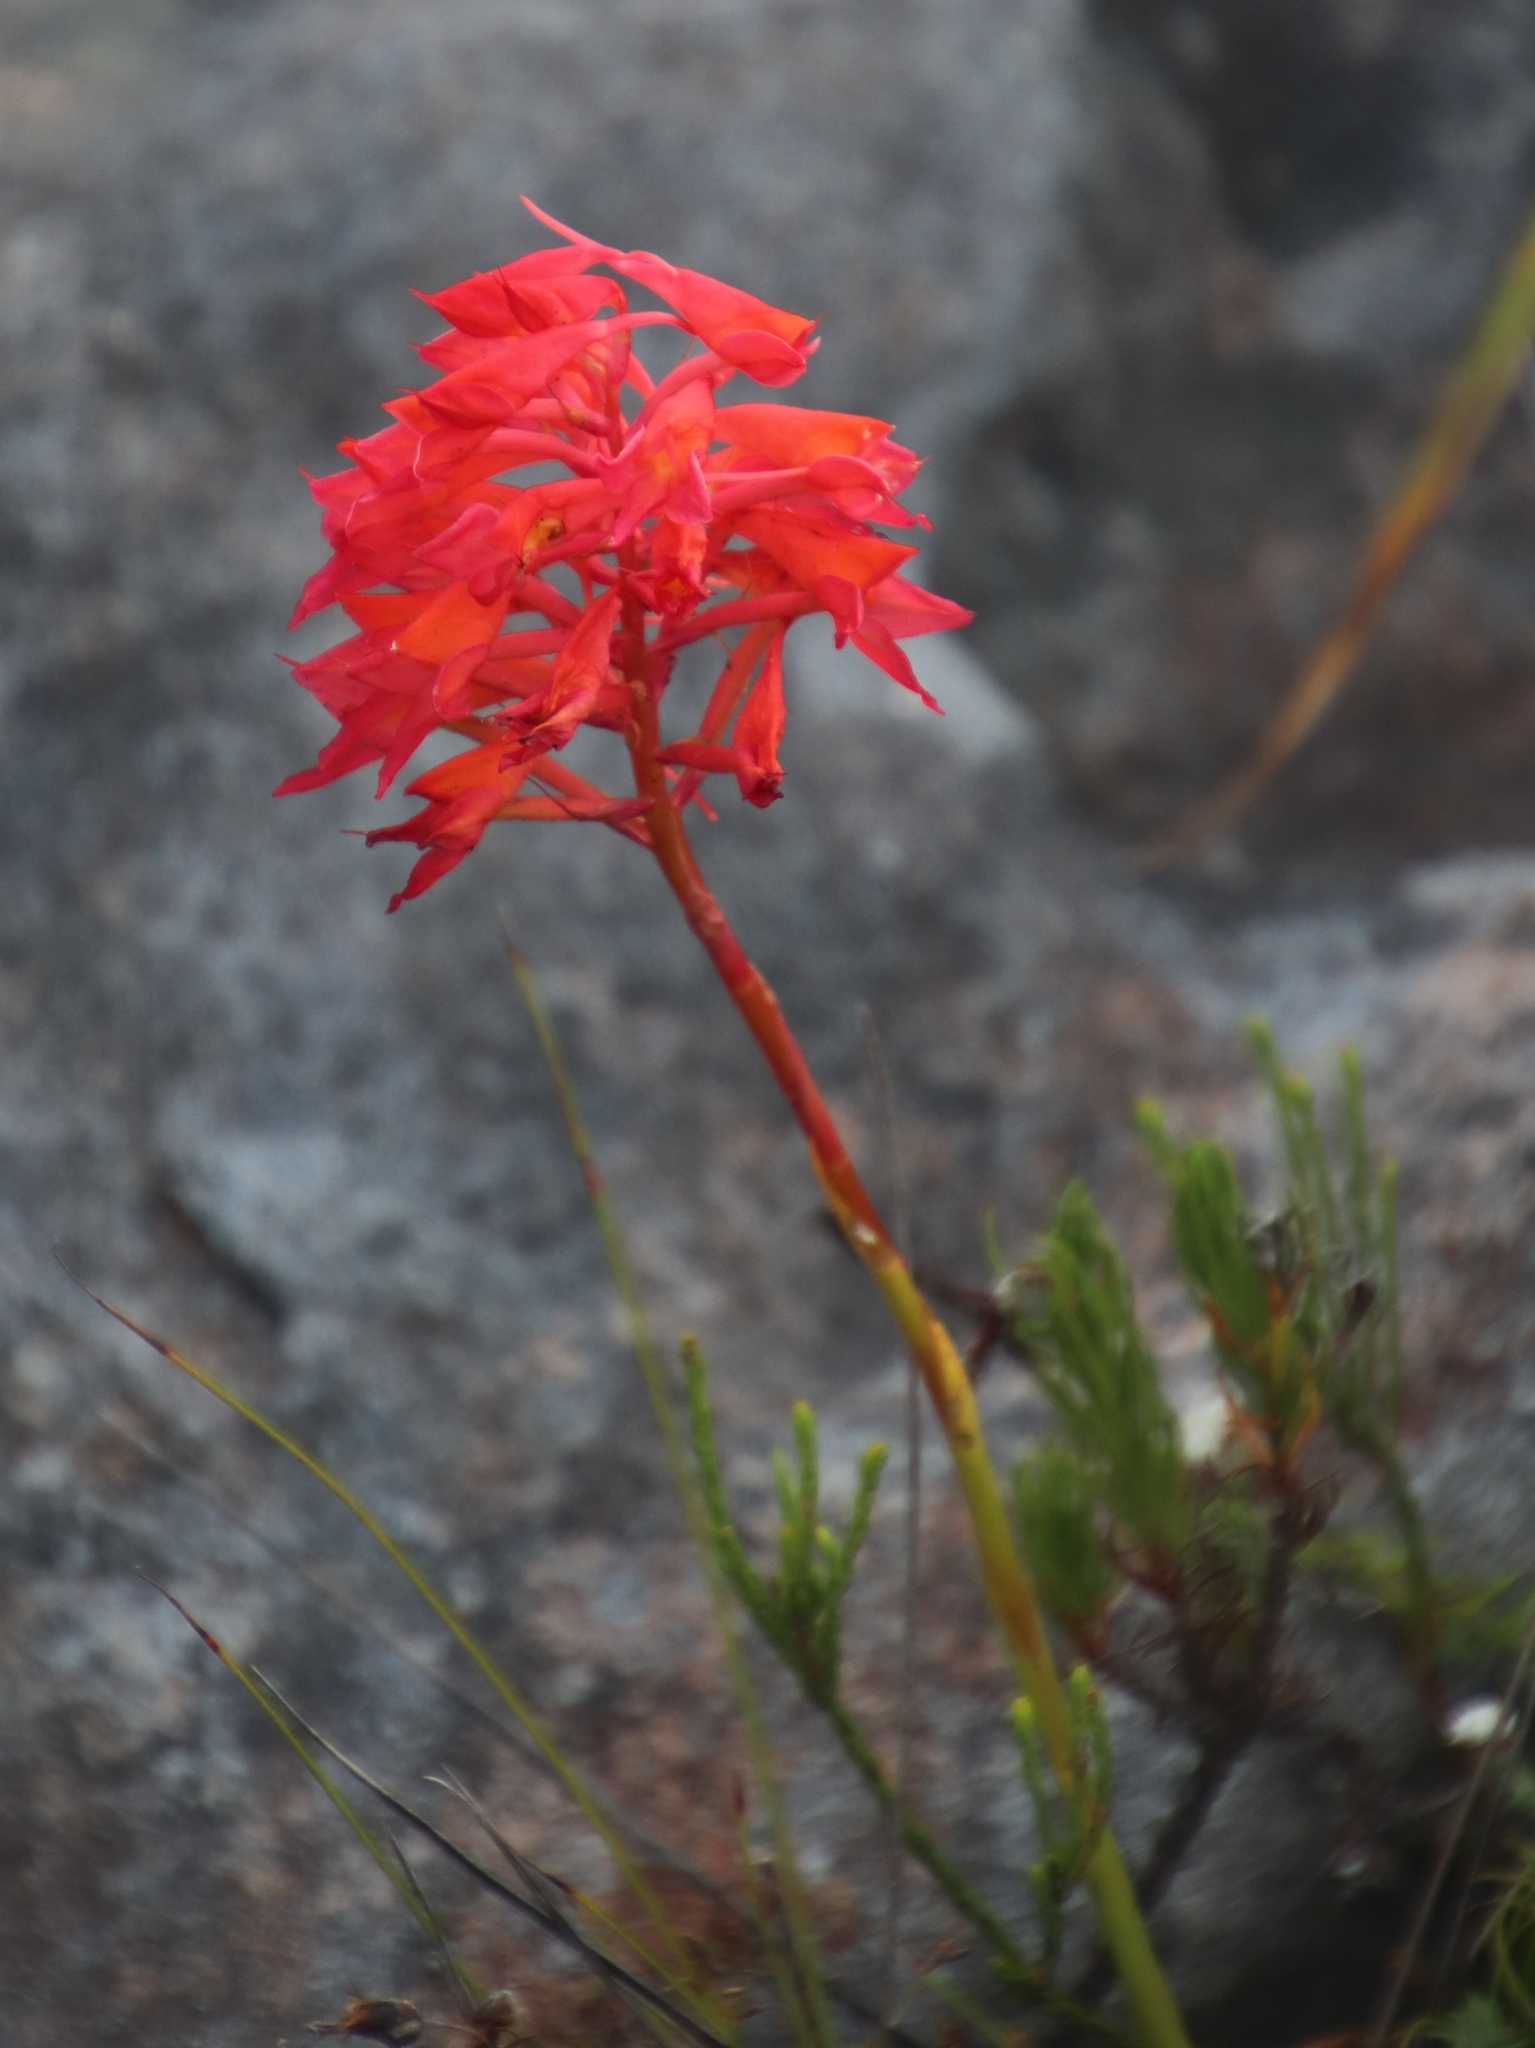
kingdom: Plantae
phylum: Tracheophyta
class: Liliopsida
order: Asparagales
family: Orchidaceae
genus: Disa
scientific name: Disa ferruginea
